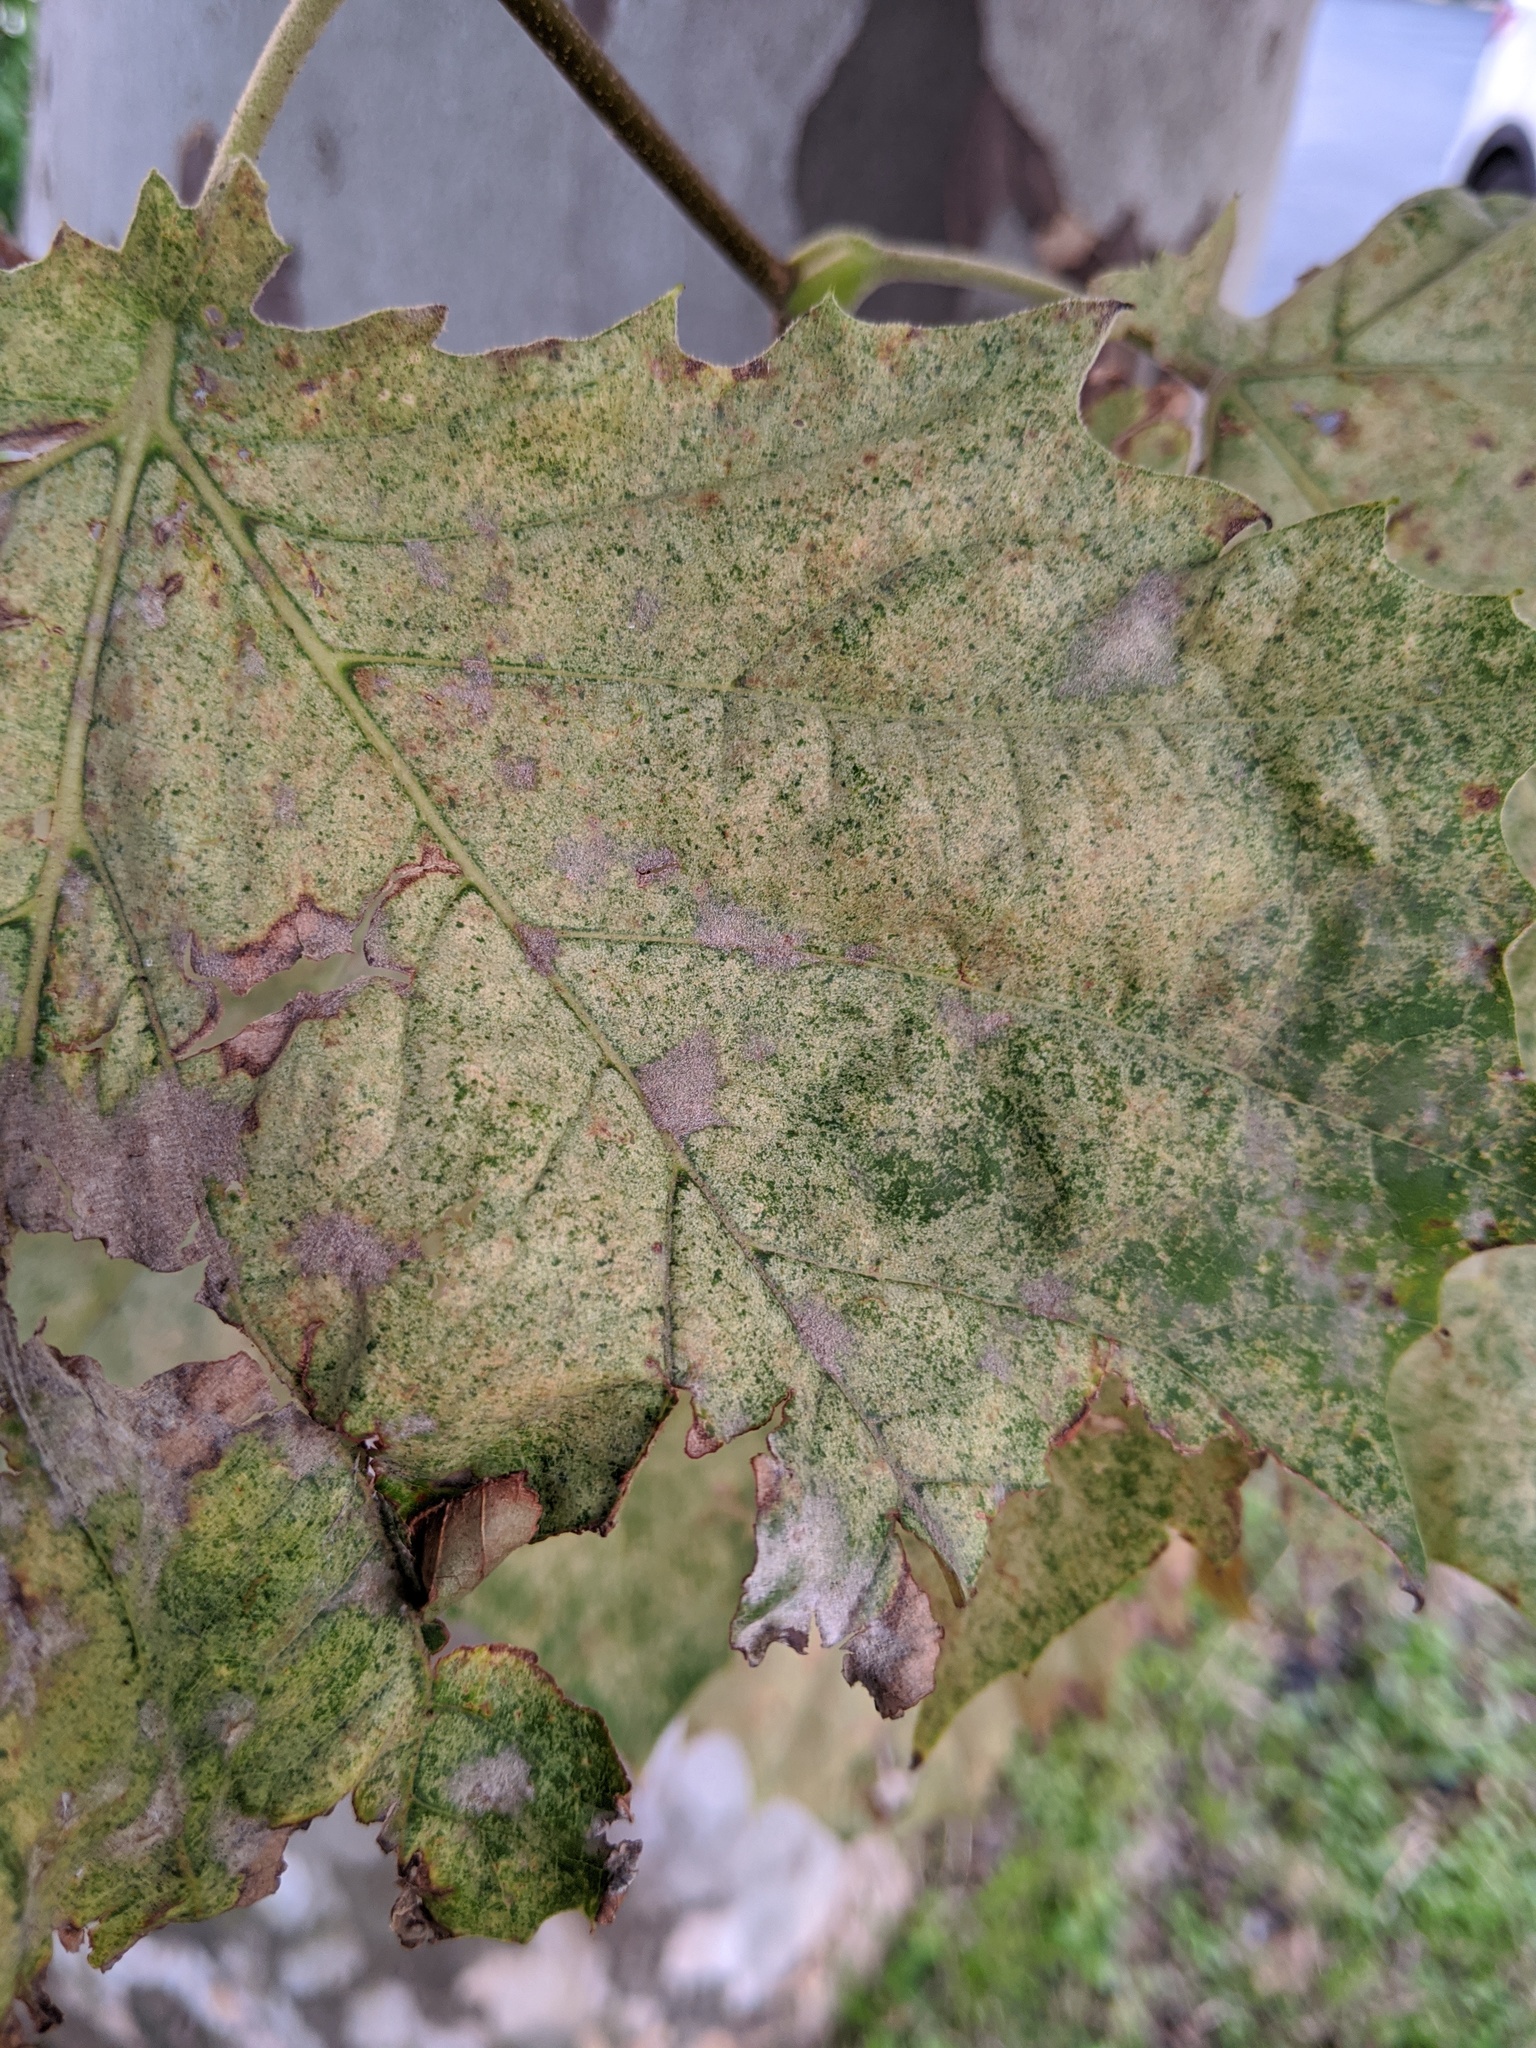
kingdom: Fungi
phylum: Ascomycota
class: Leotiomycetes
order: Helotiales
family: Erysiphaceae
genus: Erysiphe
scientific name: Erysiphe platani
